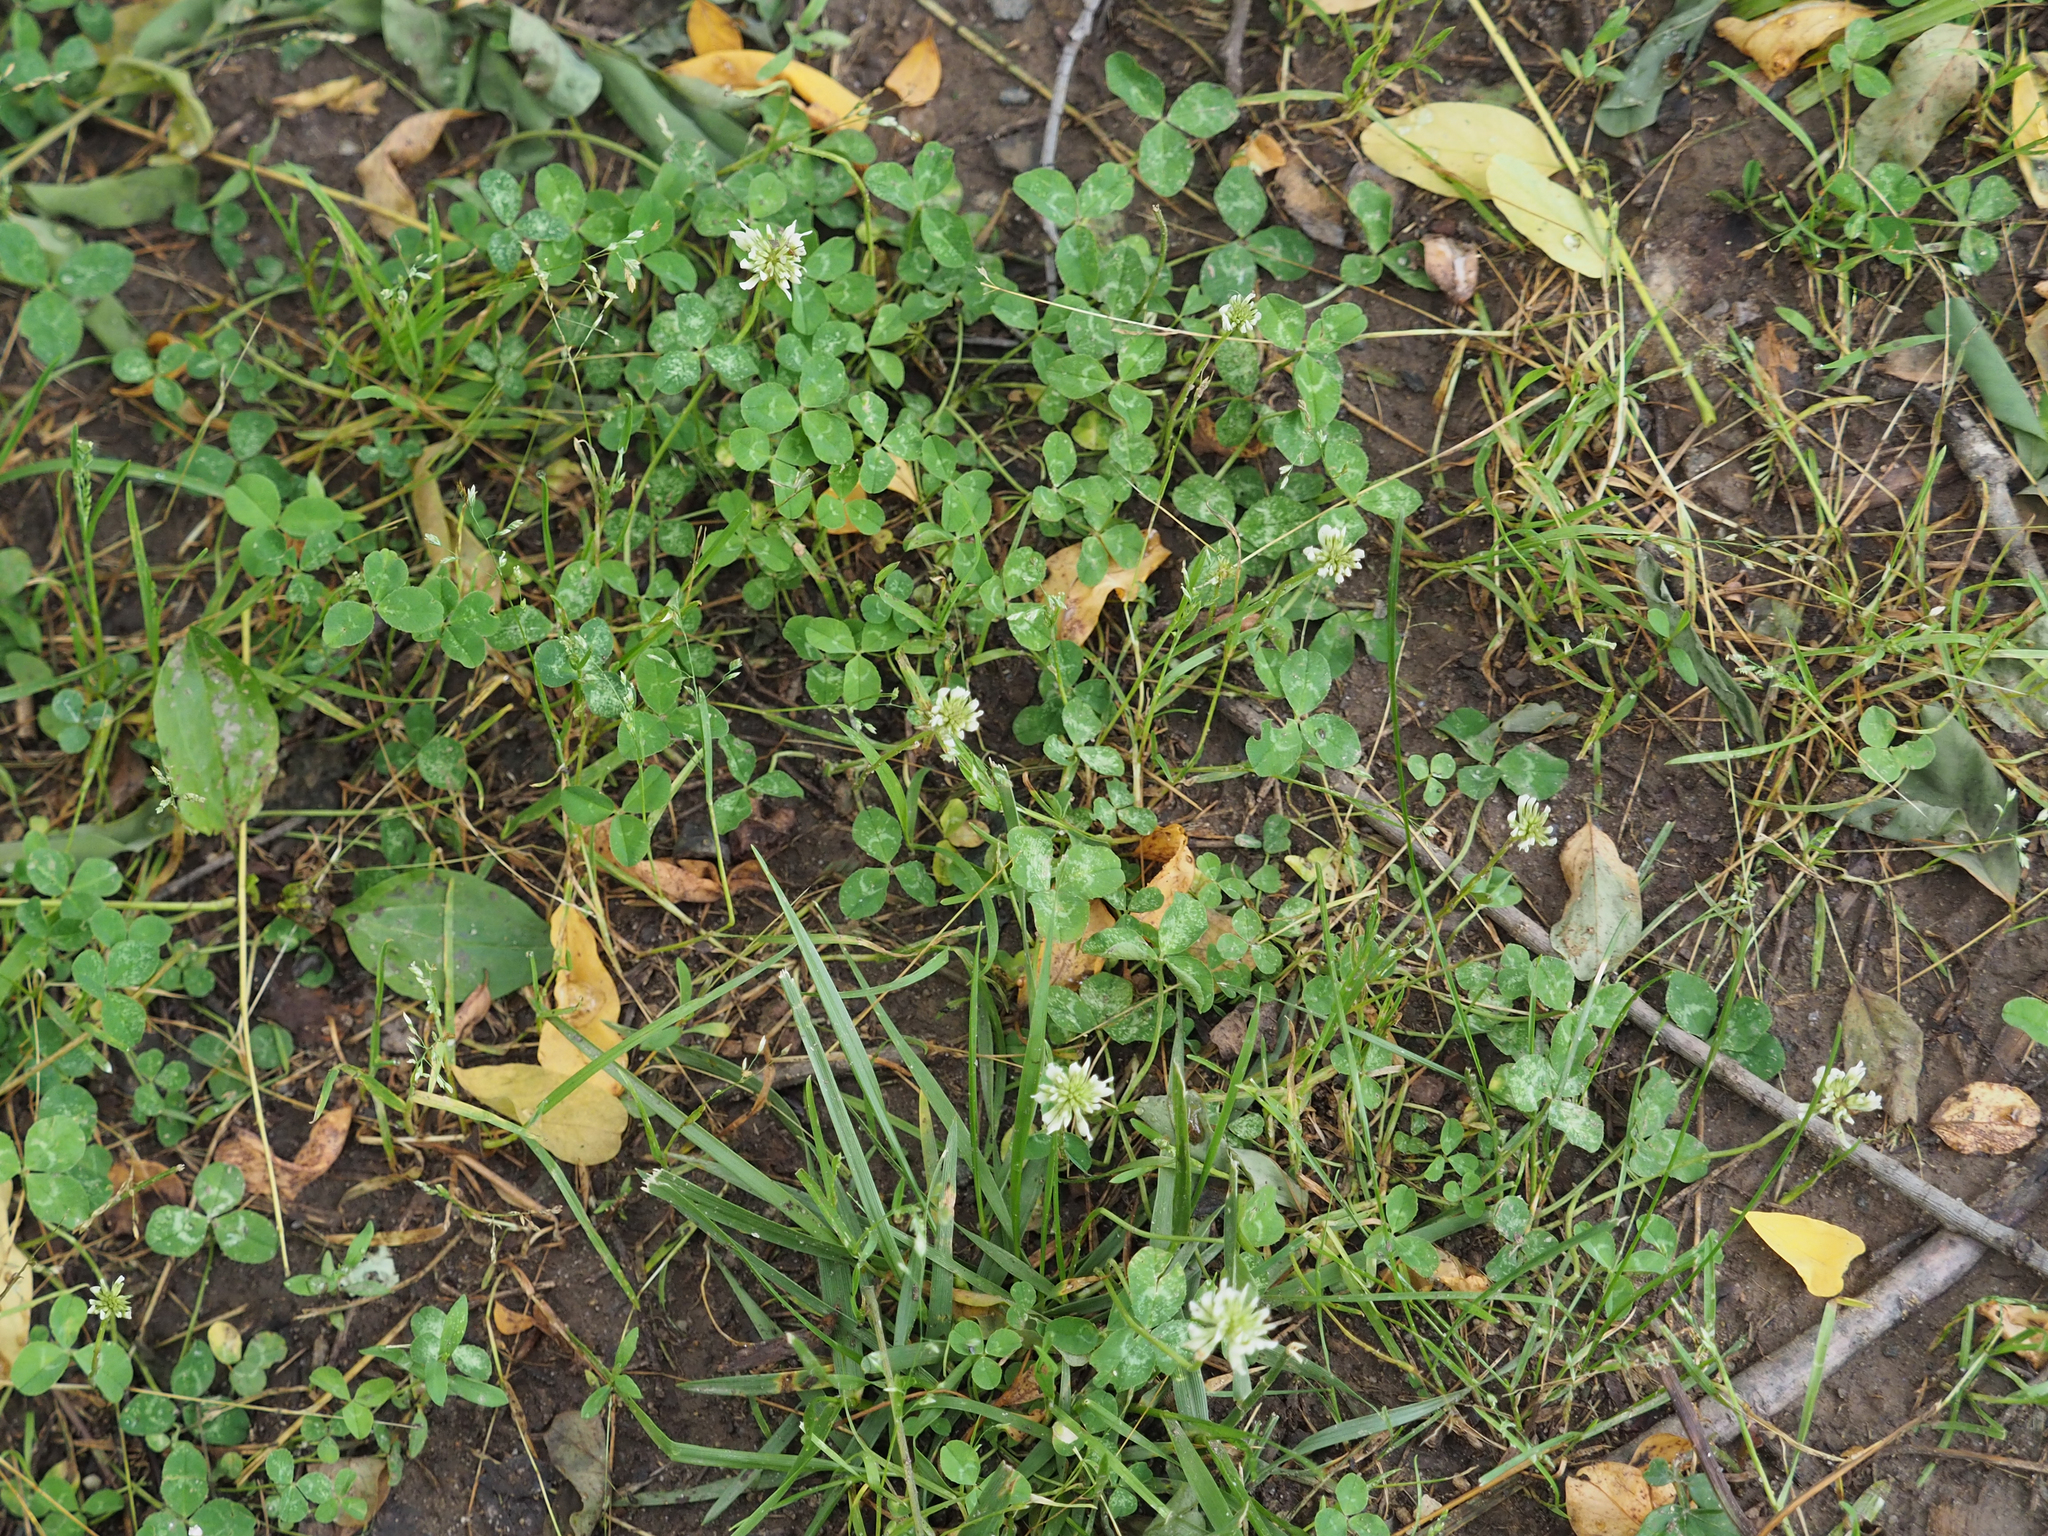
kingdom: Plantae
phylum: Tracheophyta
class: Magnoliopsida
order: Fabales
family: Fabaceae
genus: Trifolium
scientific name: Trifolium repens
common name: White clover
